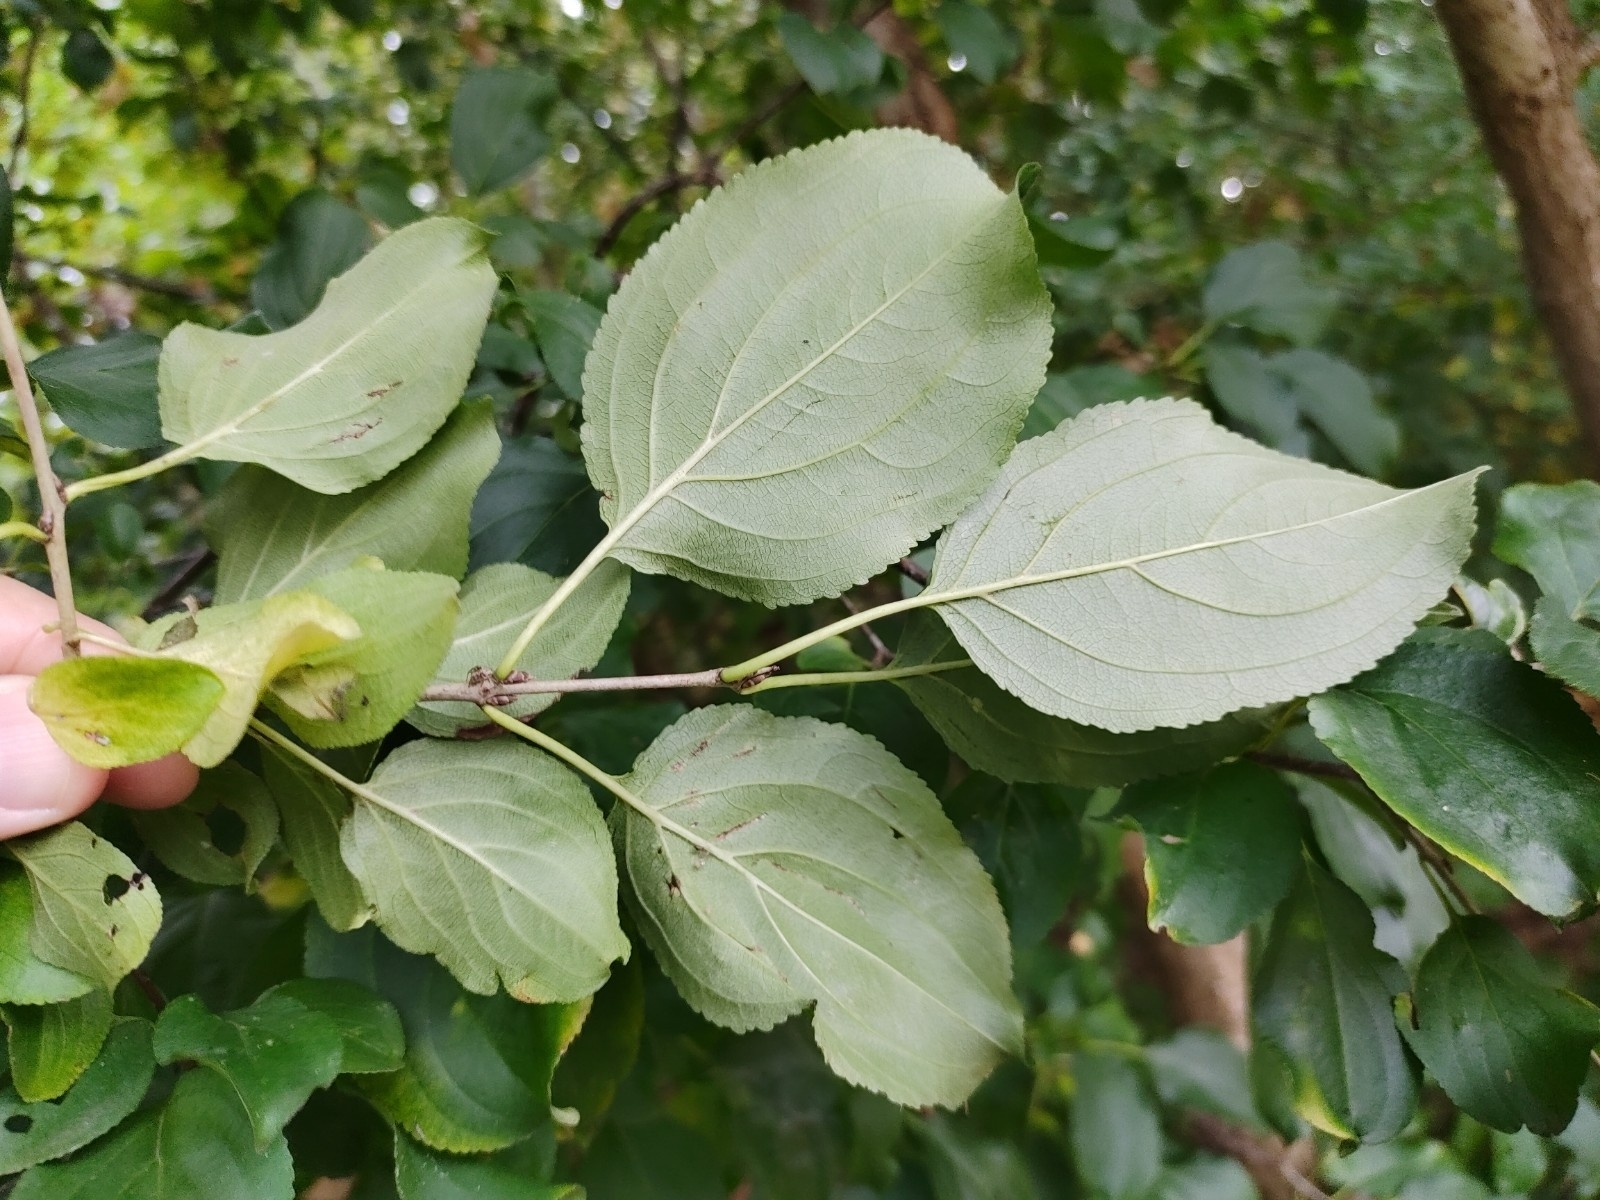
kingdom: Plantae
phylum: Tracheophyta
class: Magnoliopsida
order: Rosales
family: Rhamnaceae
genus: Rhamnus
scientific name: Rhamnus cathartica
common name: Common buckthorn
